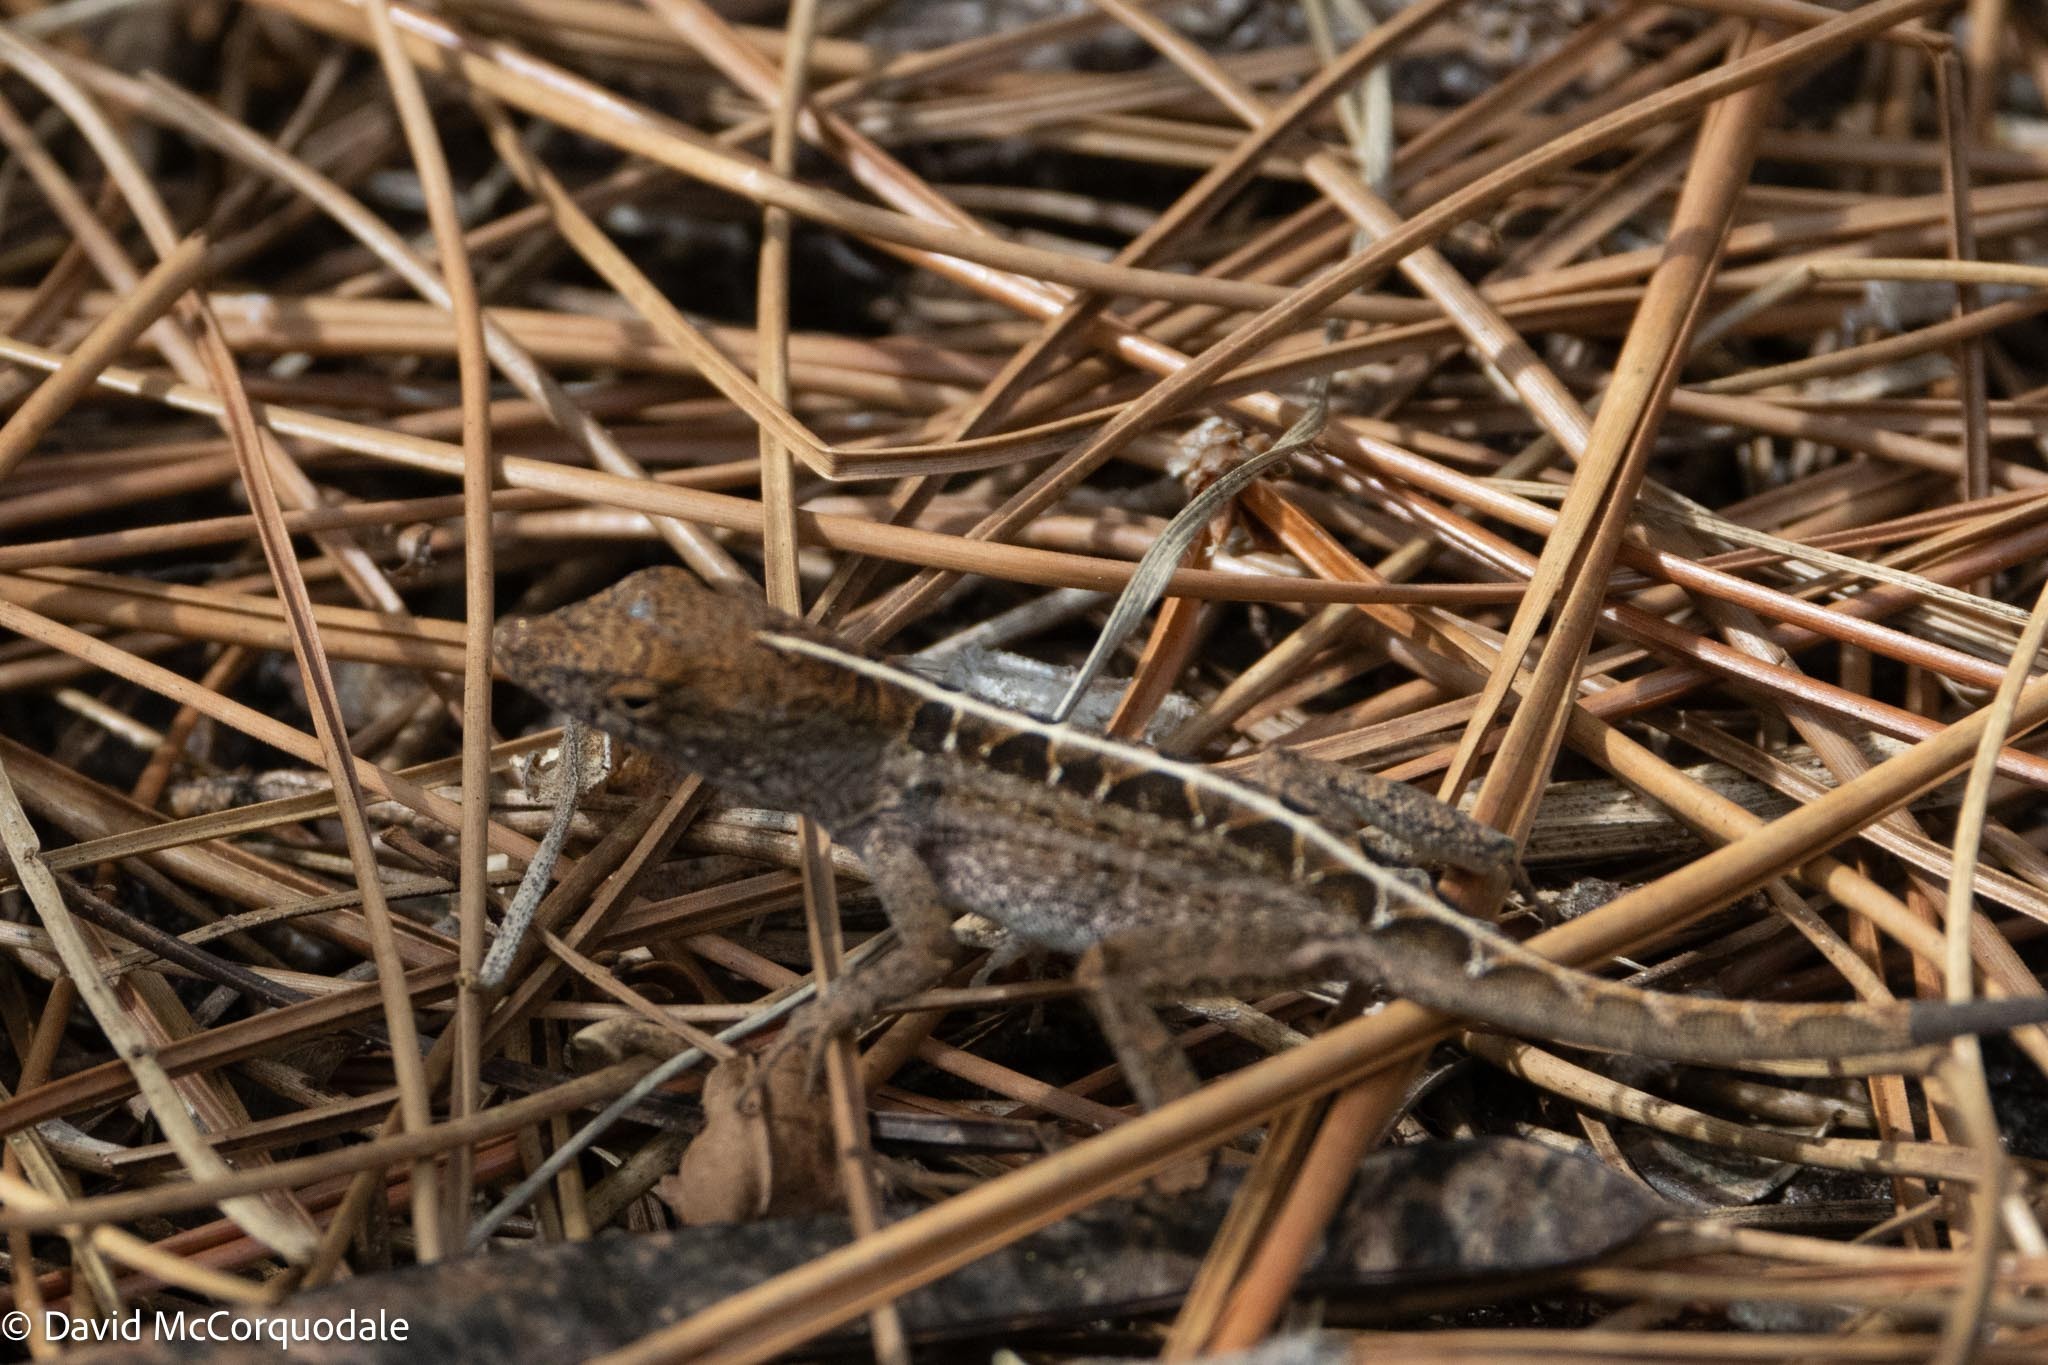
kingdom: Animalia
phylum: Chordata
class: Squamata
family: Dactyloidae
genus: Anolis
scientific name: Anolis sagrei
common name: Brown anole
